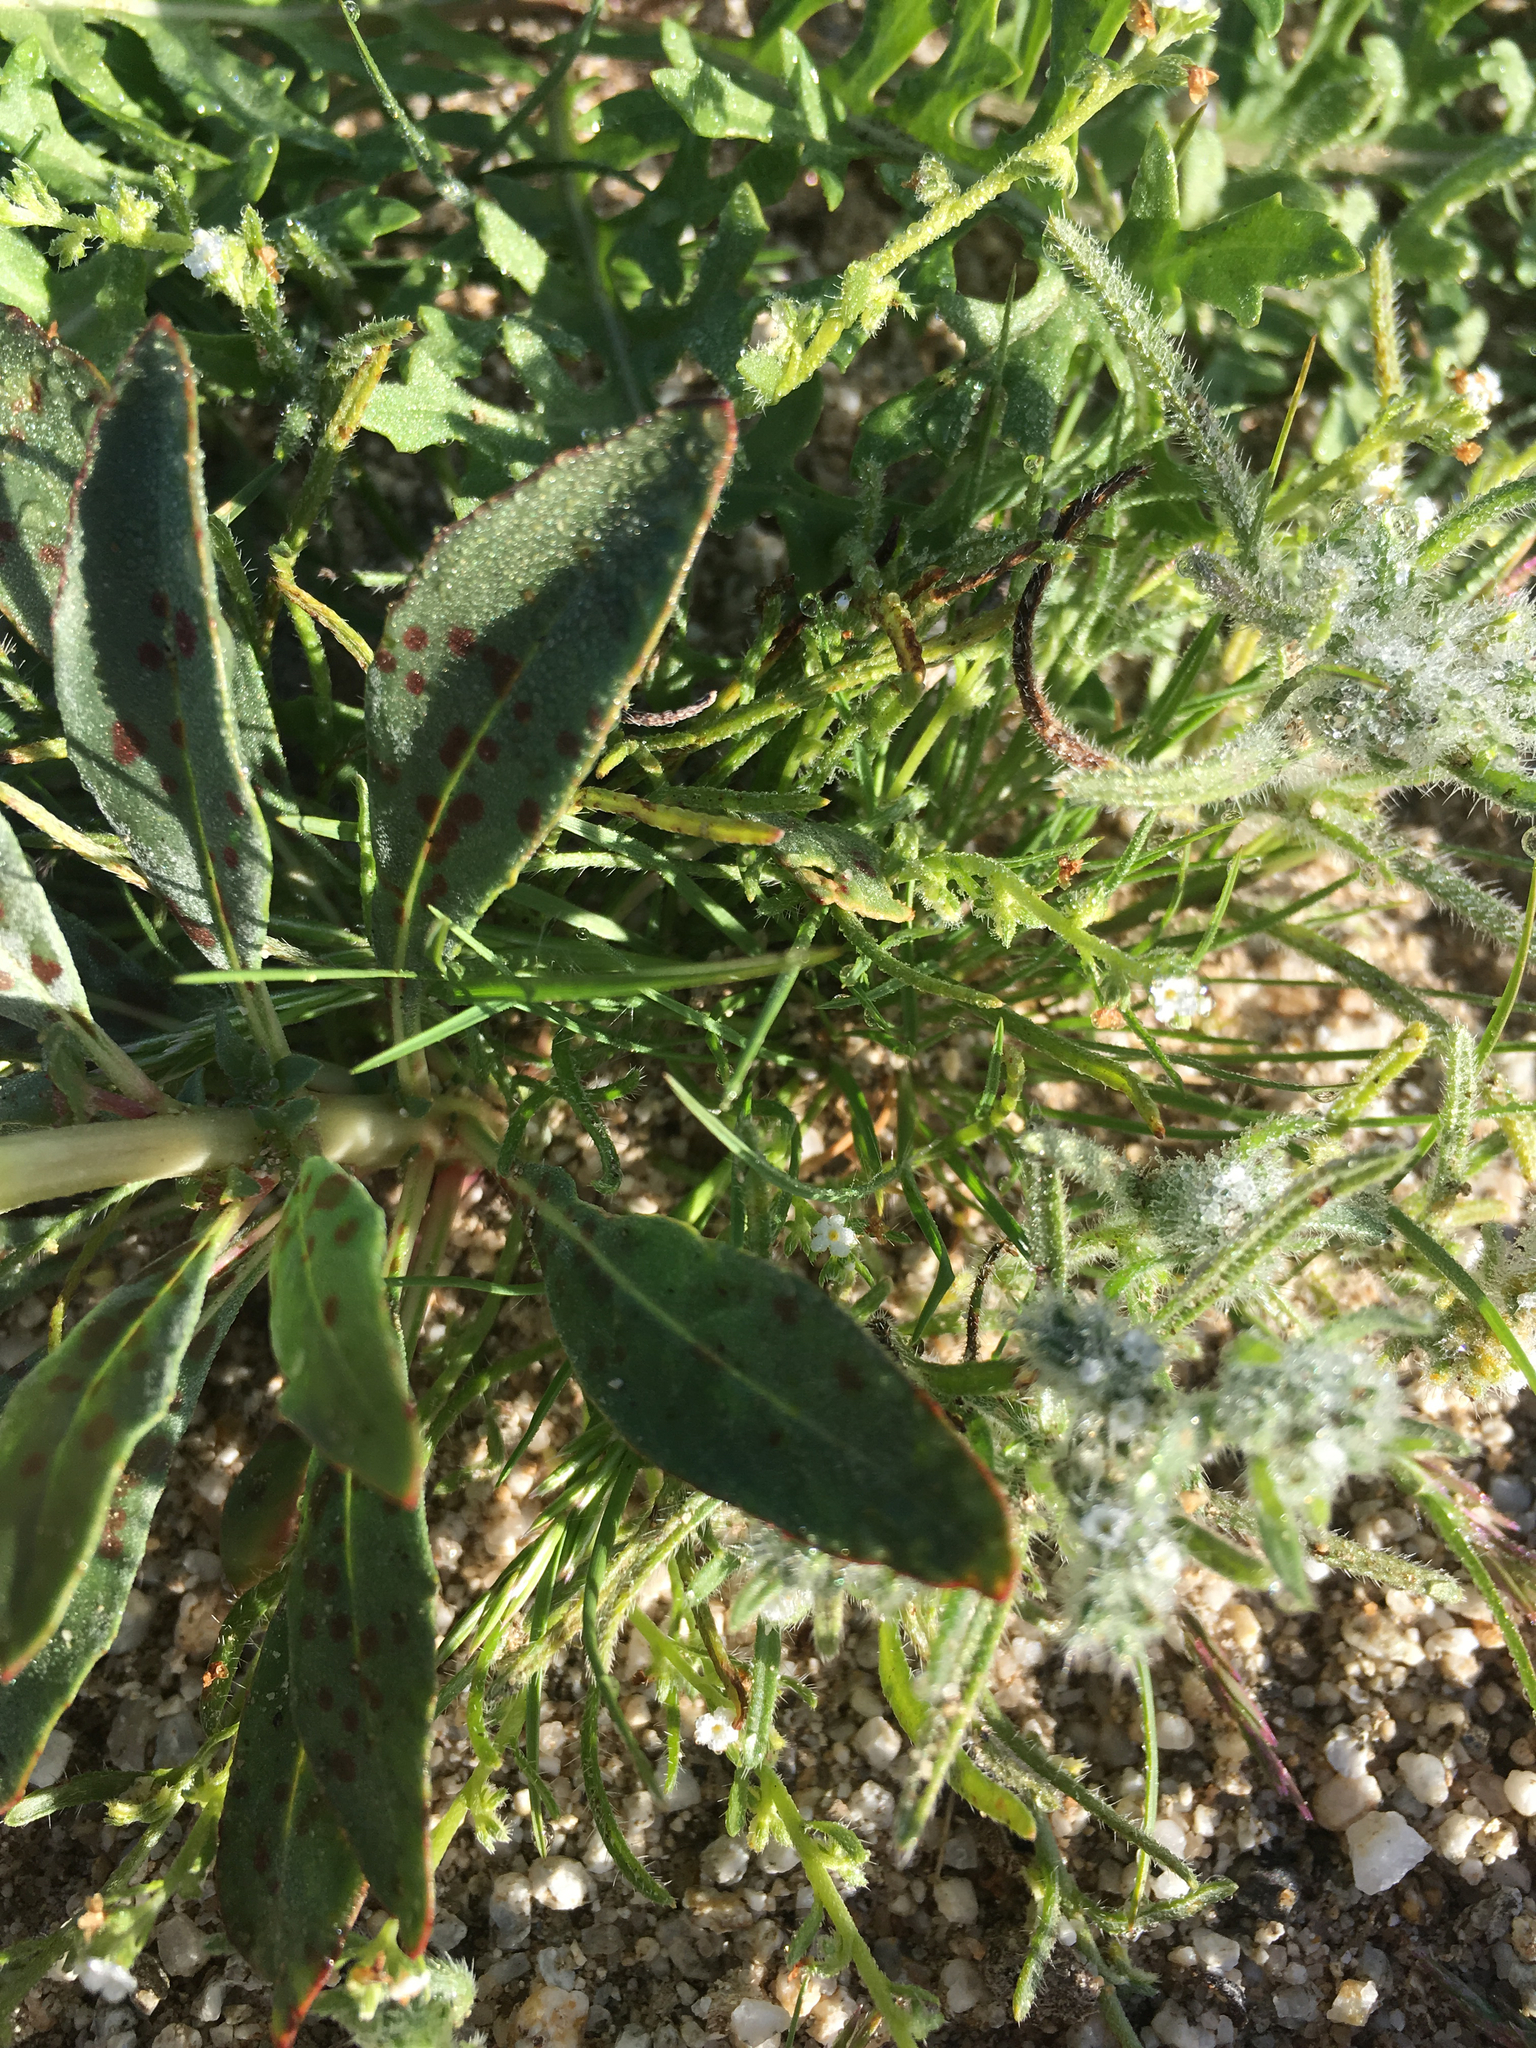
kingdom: Plantae
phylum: Tracheophyta
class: Magnoliopsida
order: Myrtales
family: Onagraceae
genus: Eremothera
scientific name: Eremothera boothii
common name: Booth's evening primrose
